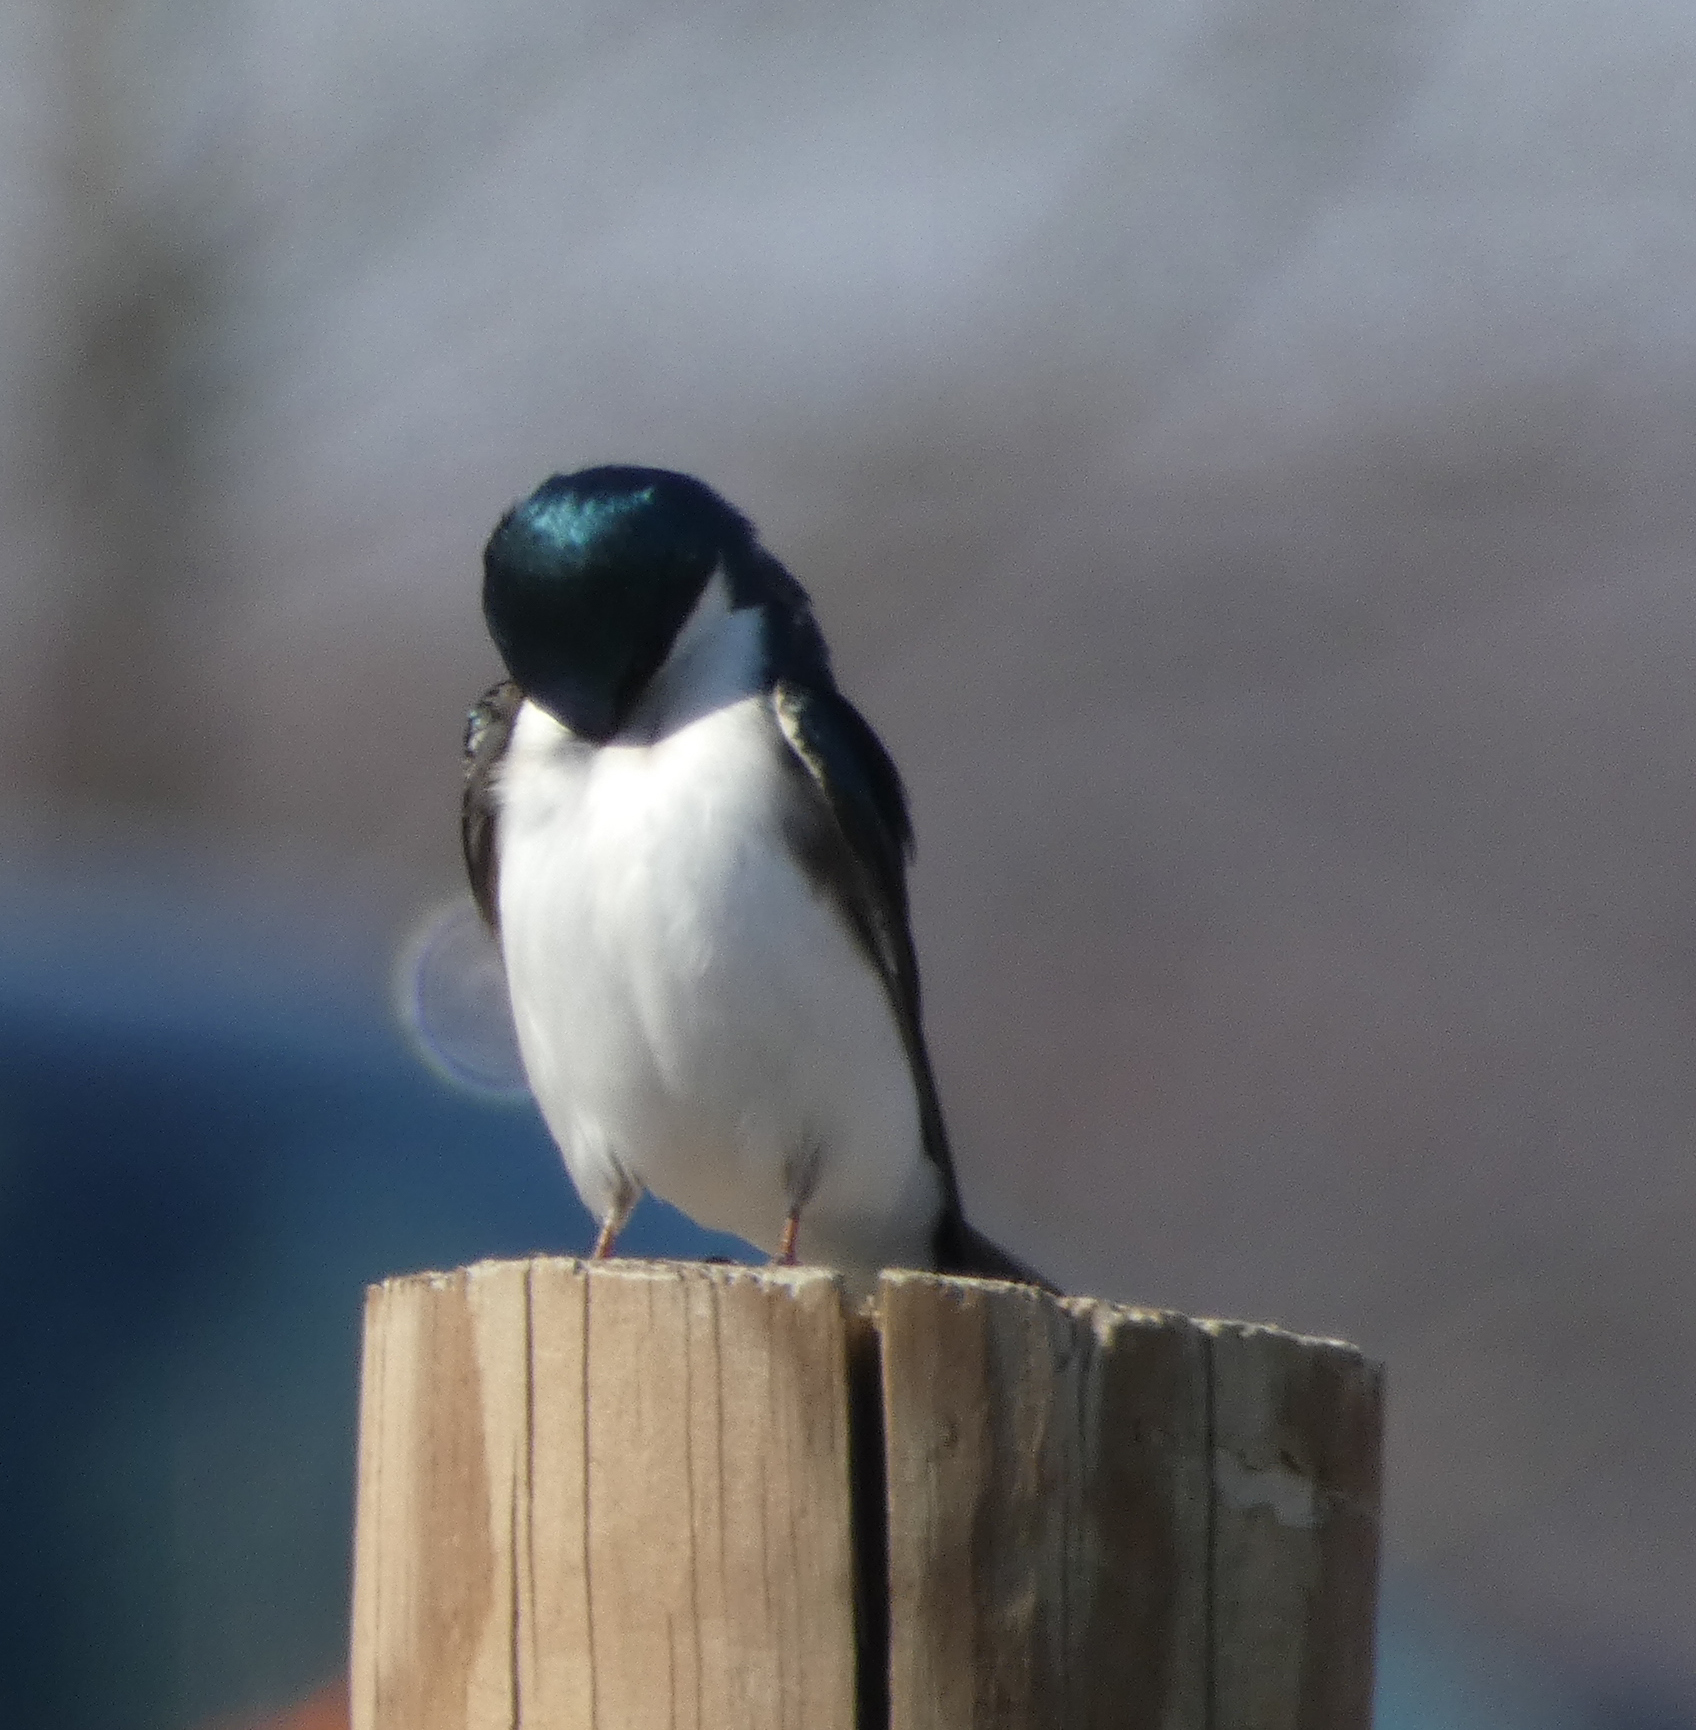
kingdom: Animalia
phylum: Chordata
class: Aves
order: Passeriformes
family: Hirundinidae
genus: Tachycineta
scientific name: Tachycineta bicolor
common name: Tree swallow
